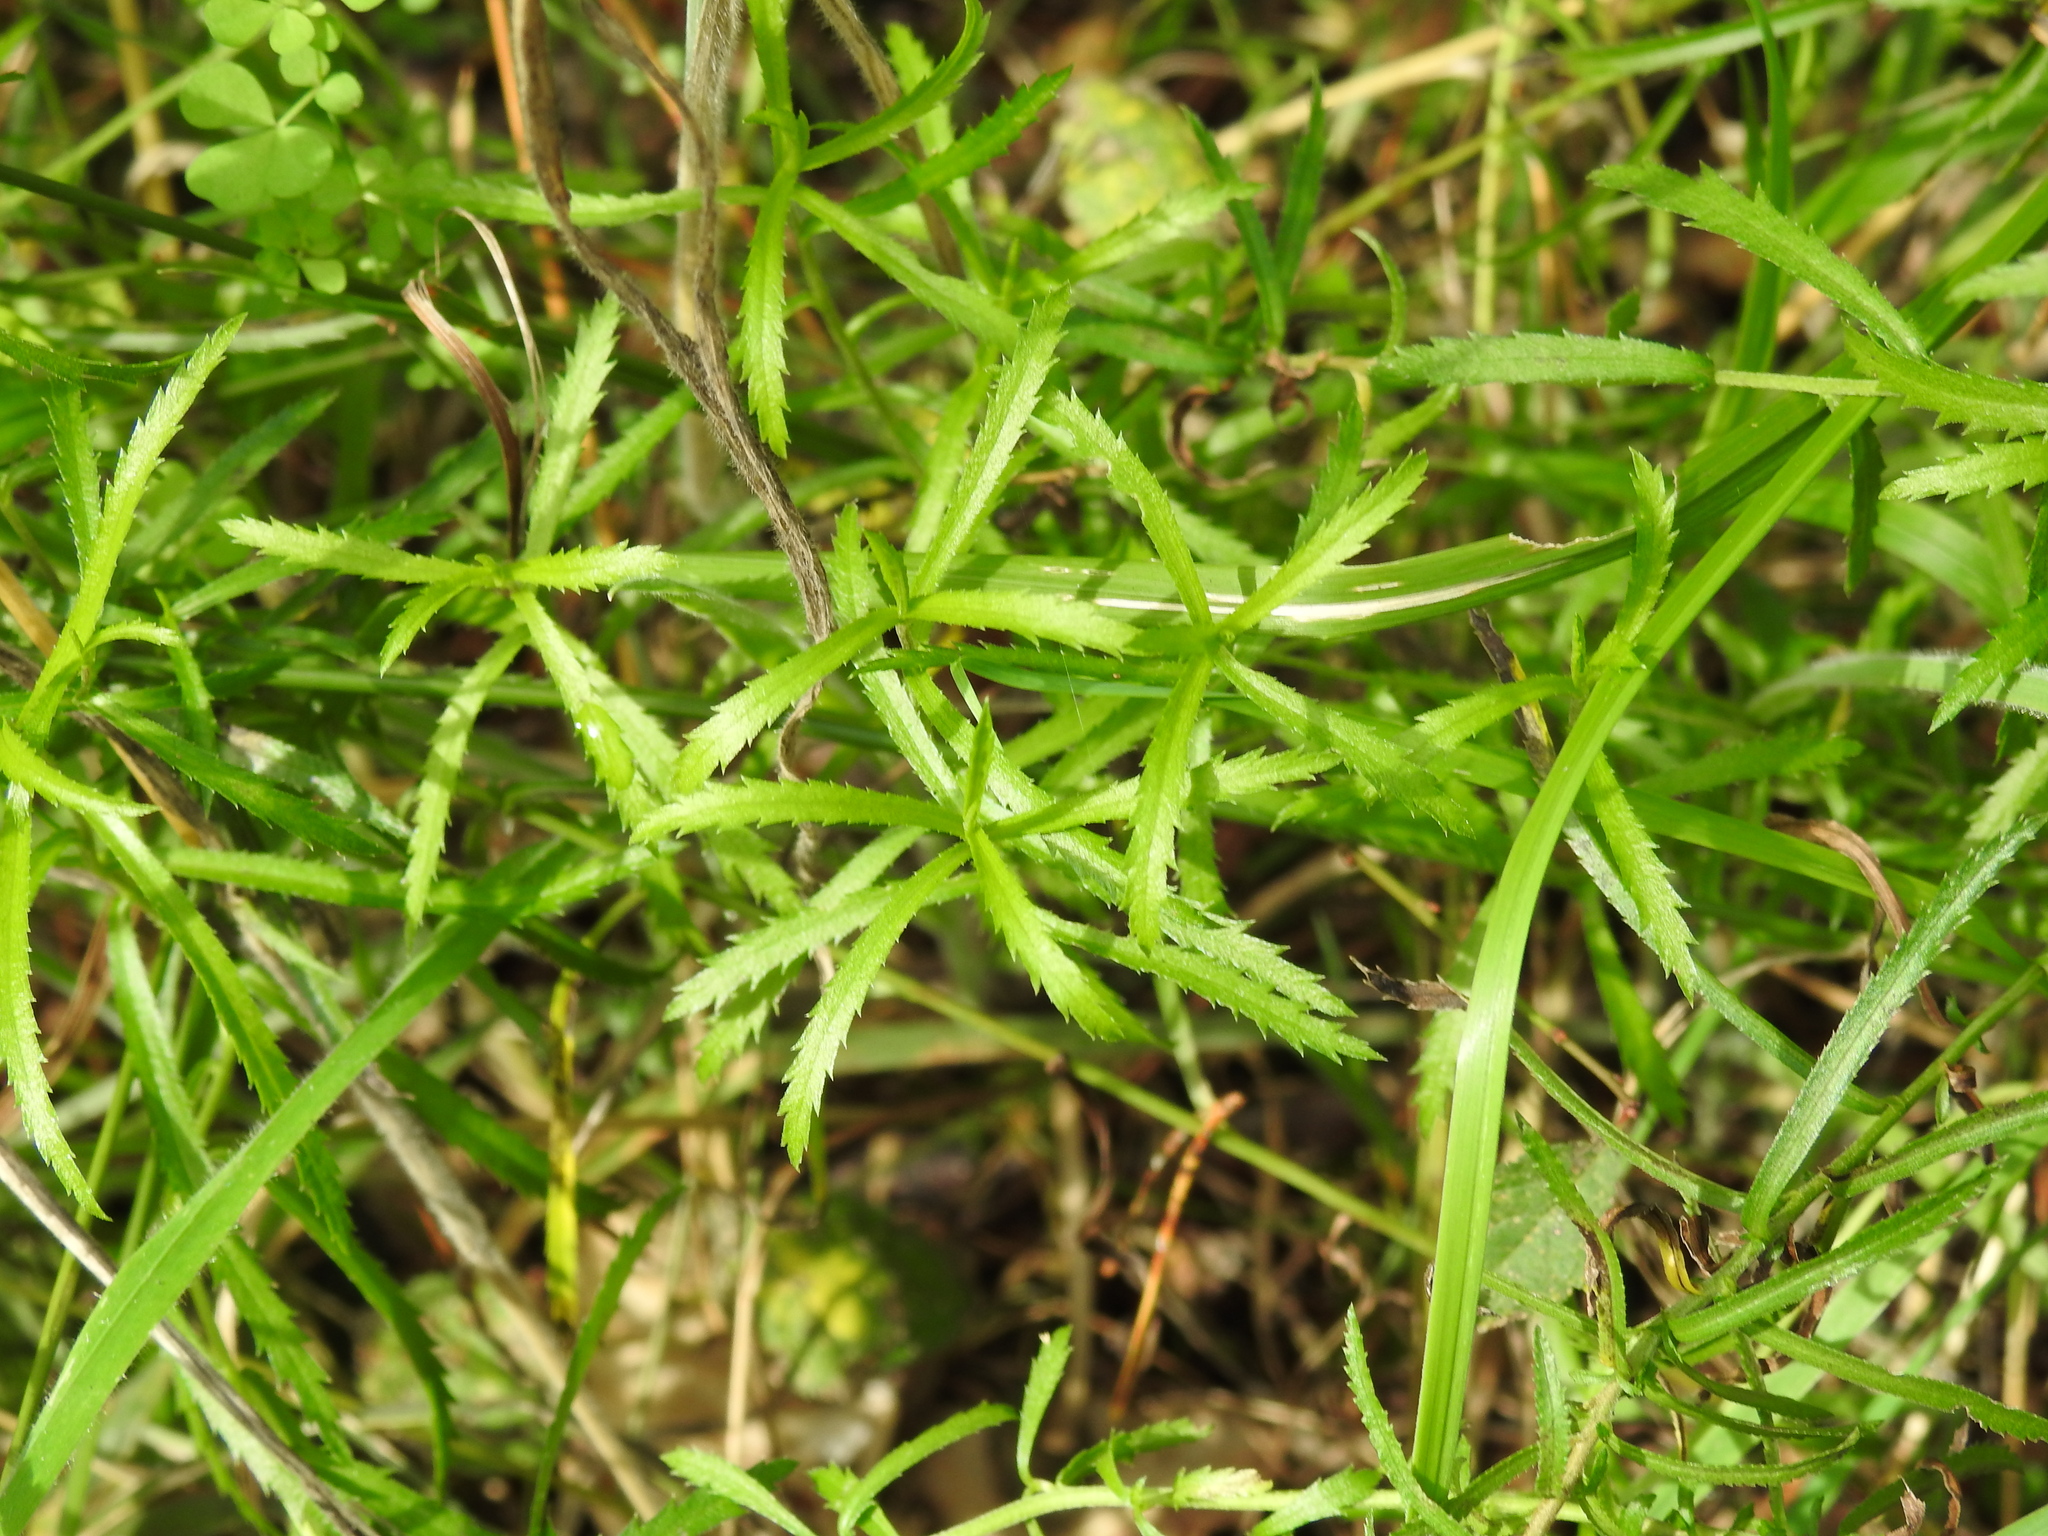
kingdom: Plantae
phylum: Tracheophyta
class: Magnoliopsida
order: Asterales
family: Asteraceae
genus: Achillea
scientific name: Achillea ptarmica
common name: Sneezeweed
